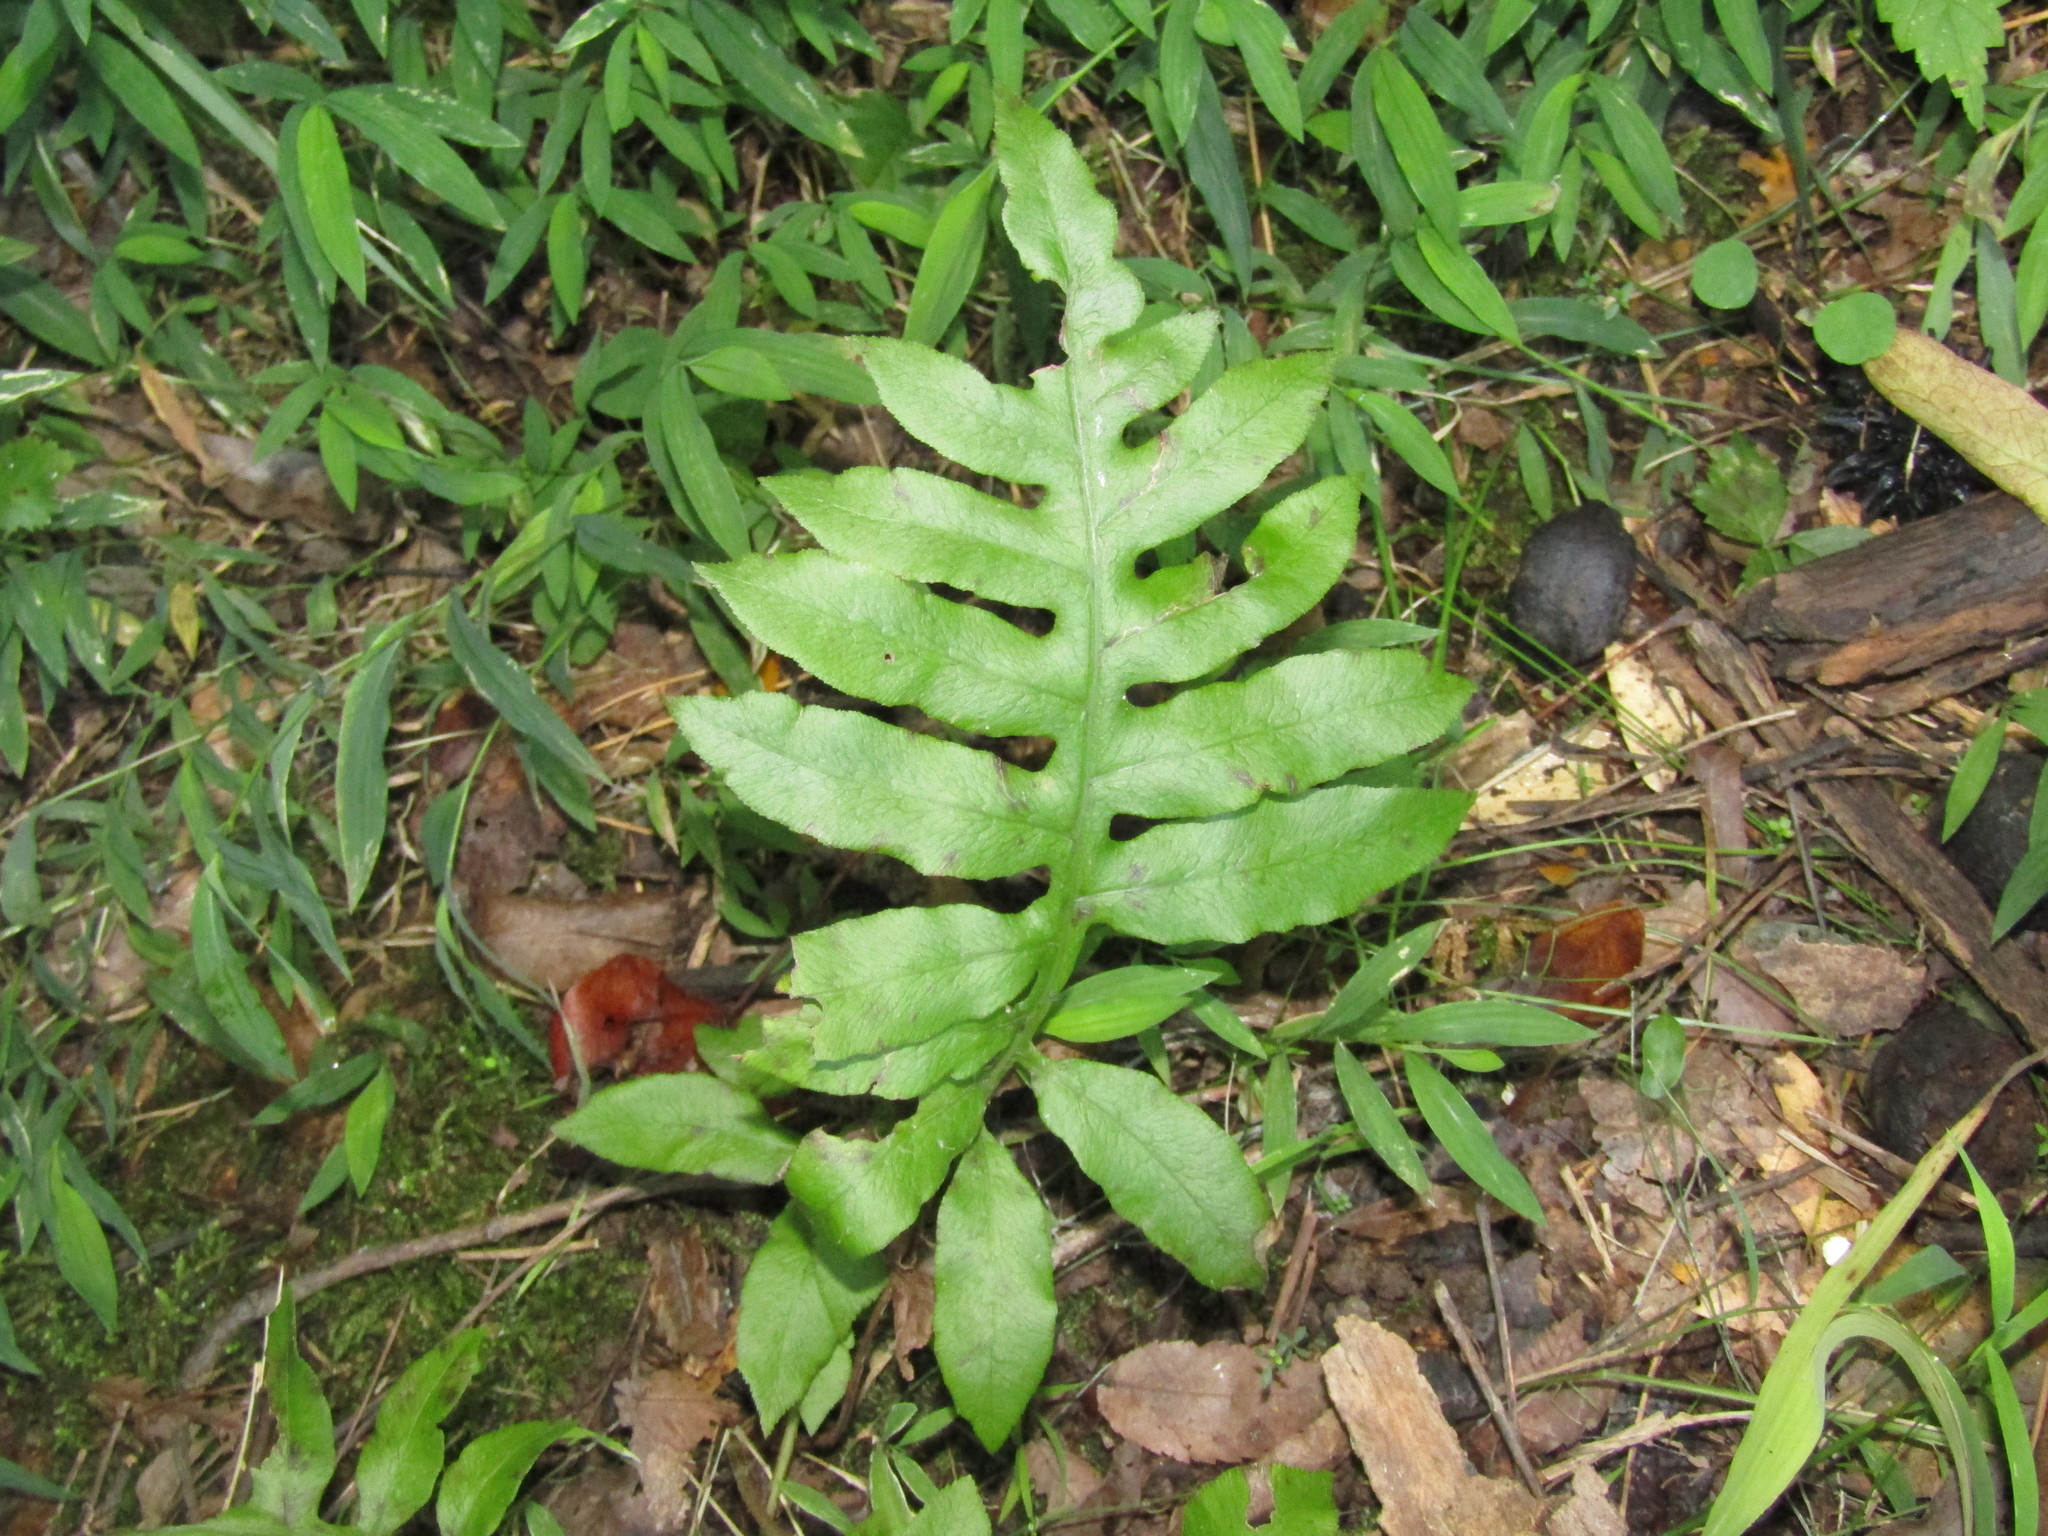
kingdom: Plantae
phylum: Tracheophyta
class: Polypodiopsida
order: Polypodiales
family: Blechnaceae
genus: Lorinseria
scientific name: Lorinseria areolata
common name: Dwarf chain fern
